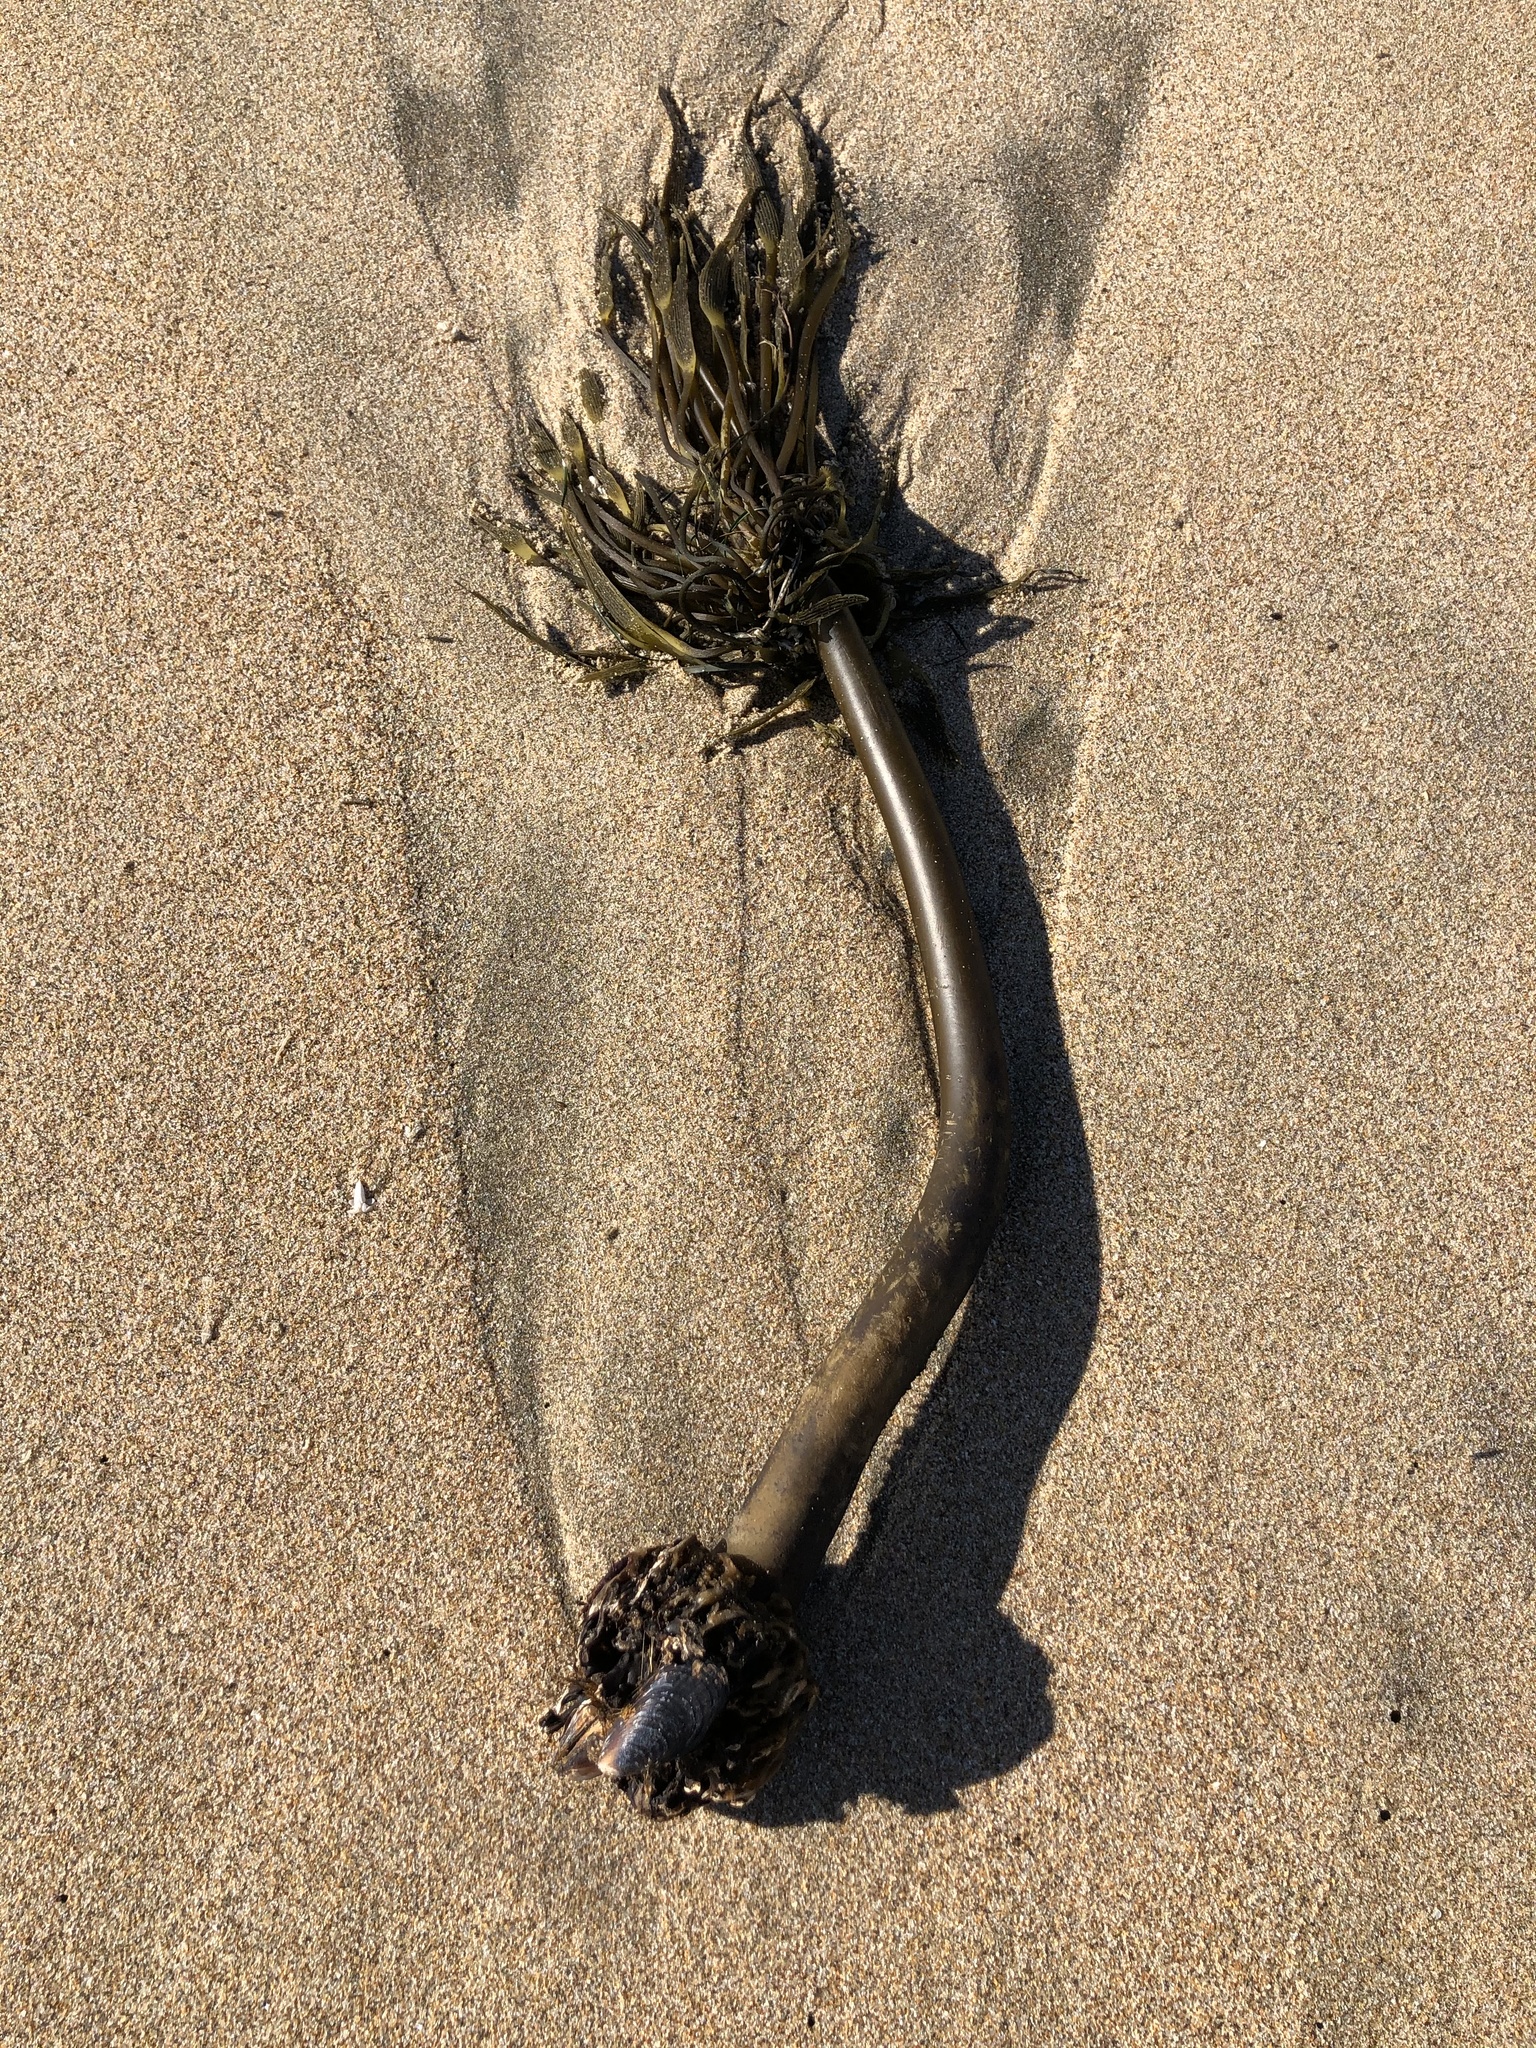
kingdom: Chromista
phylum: Ochrophyta
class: Phaeophyceae
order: Laminariales
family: Laminariaceae
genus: Postelsia
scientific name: Postelsia palmiformis
